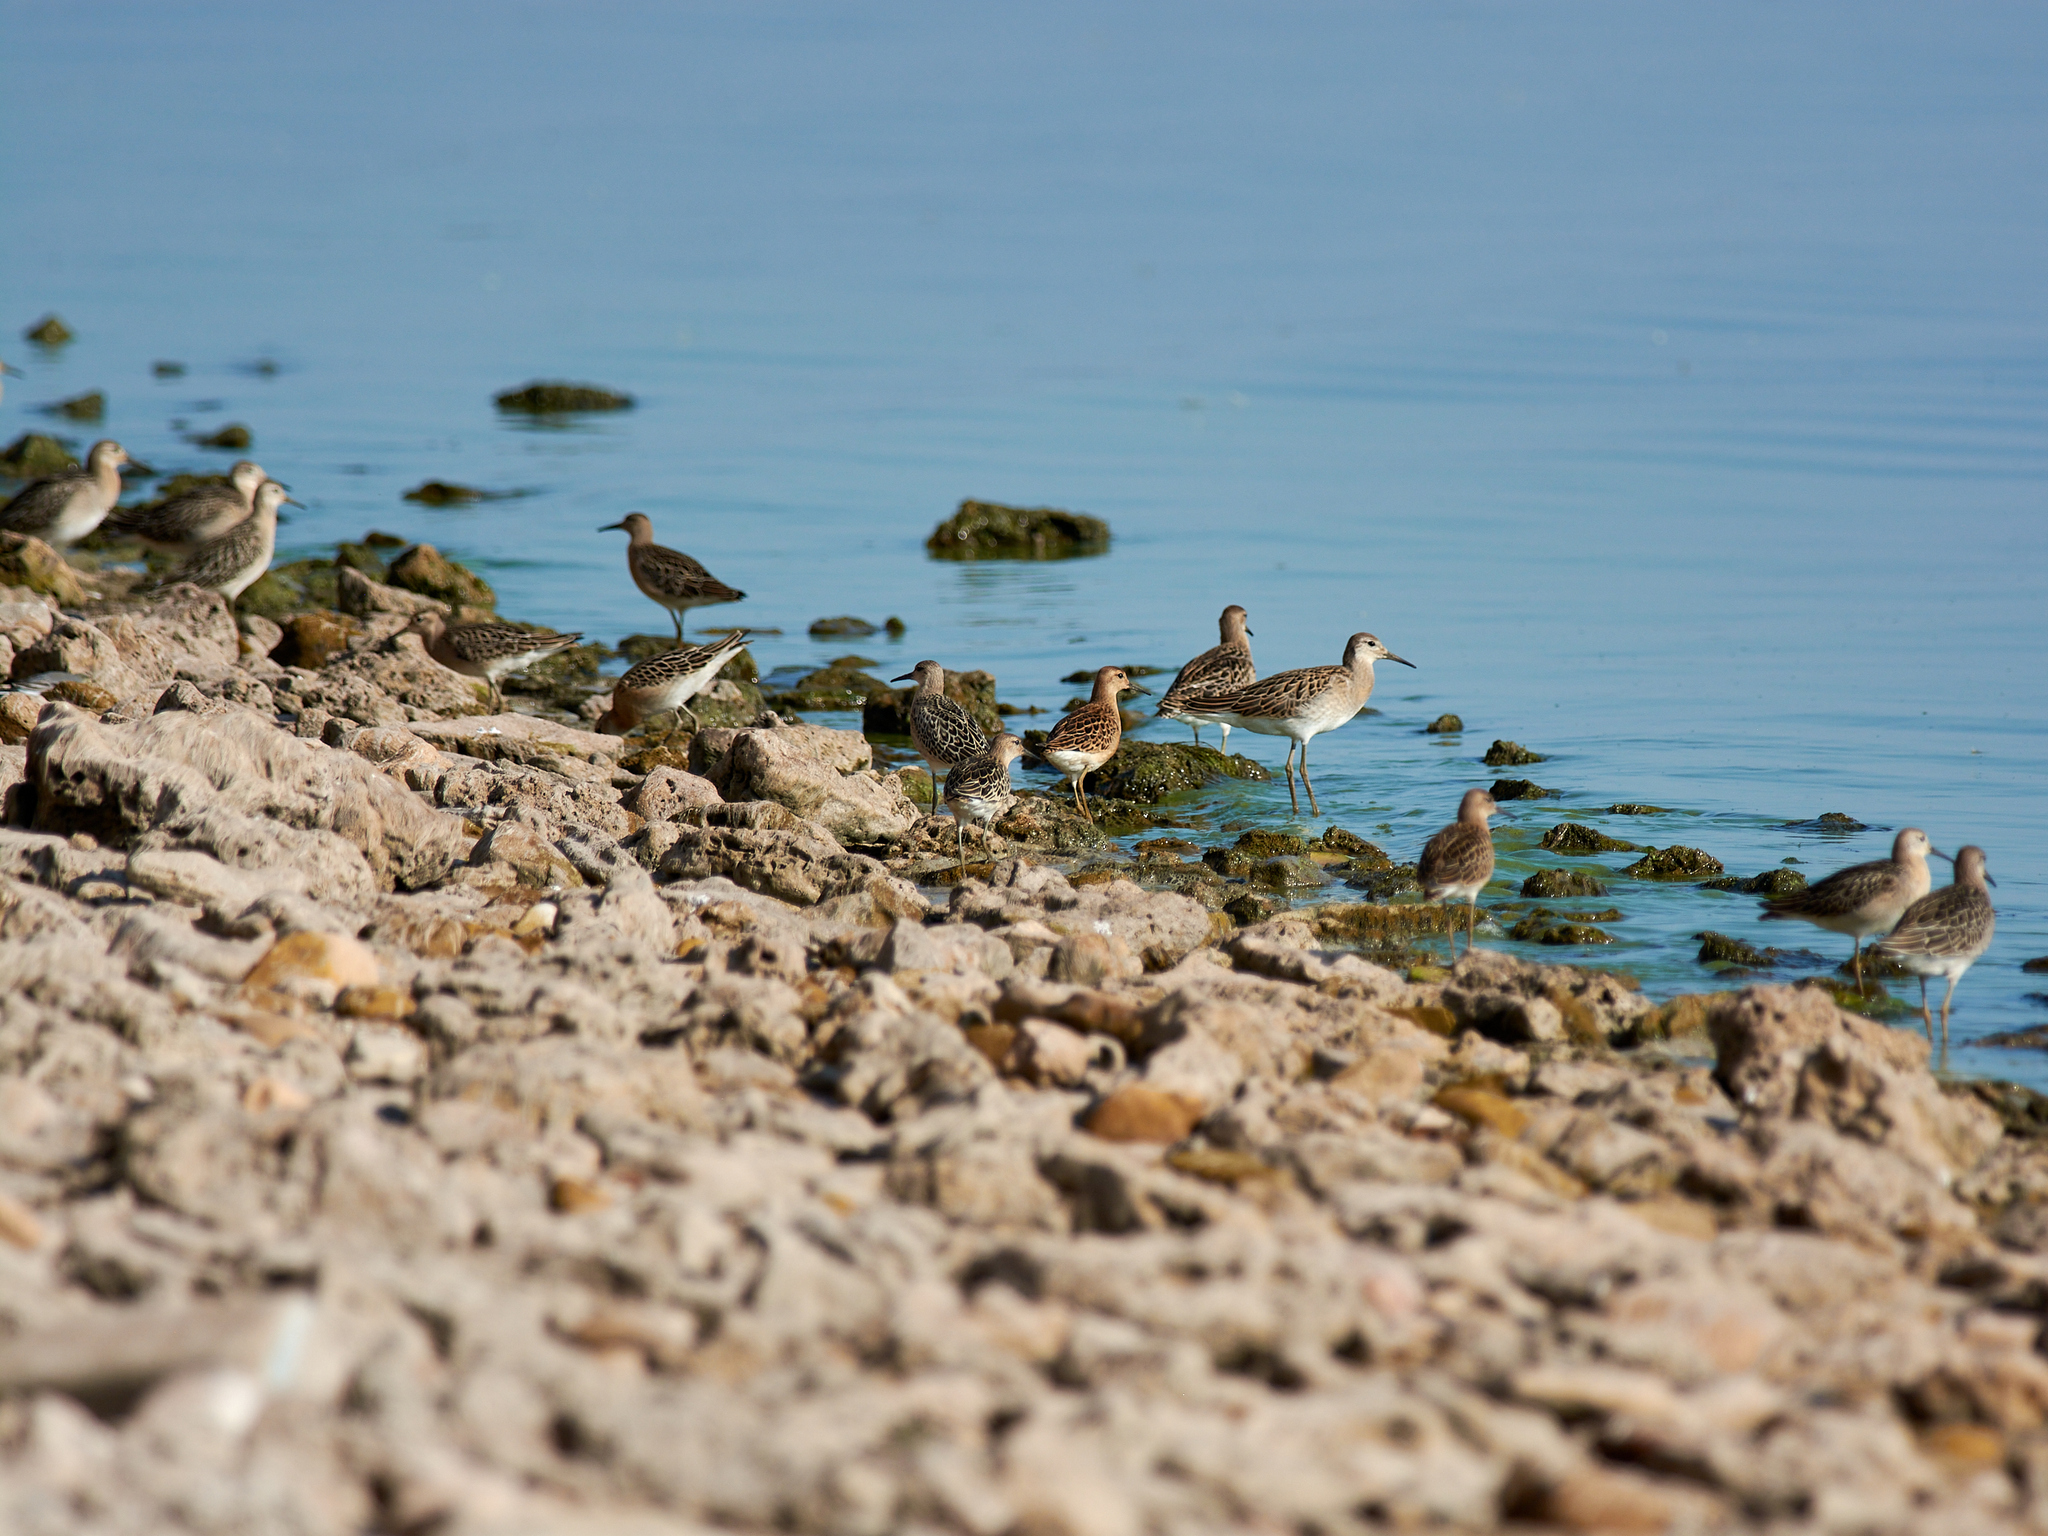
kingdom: Animalia
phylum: Chordata
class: Aves
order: Charadriiformes
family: Scolopacidae
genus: Calidris
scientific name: Calidris pugnax
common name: Ruff
